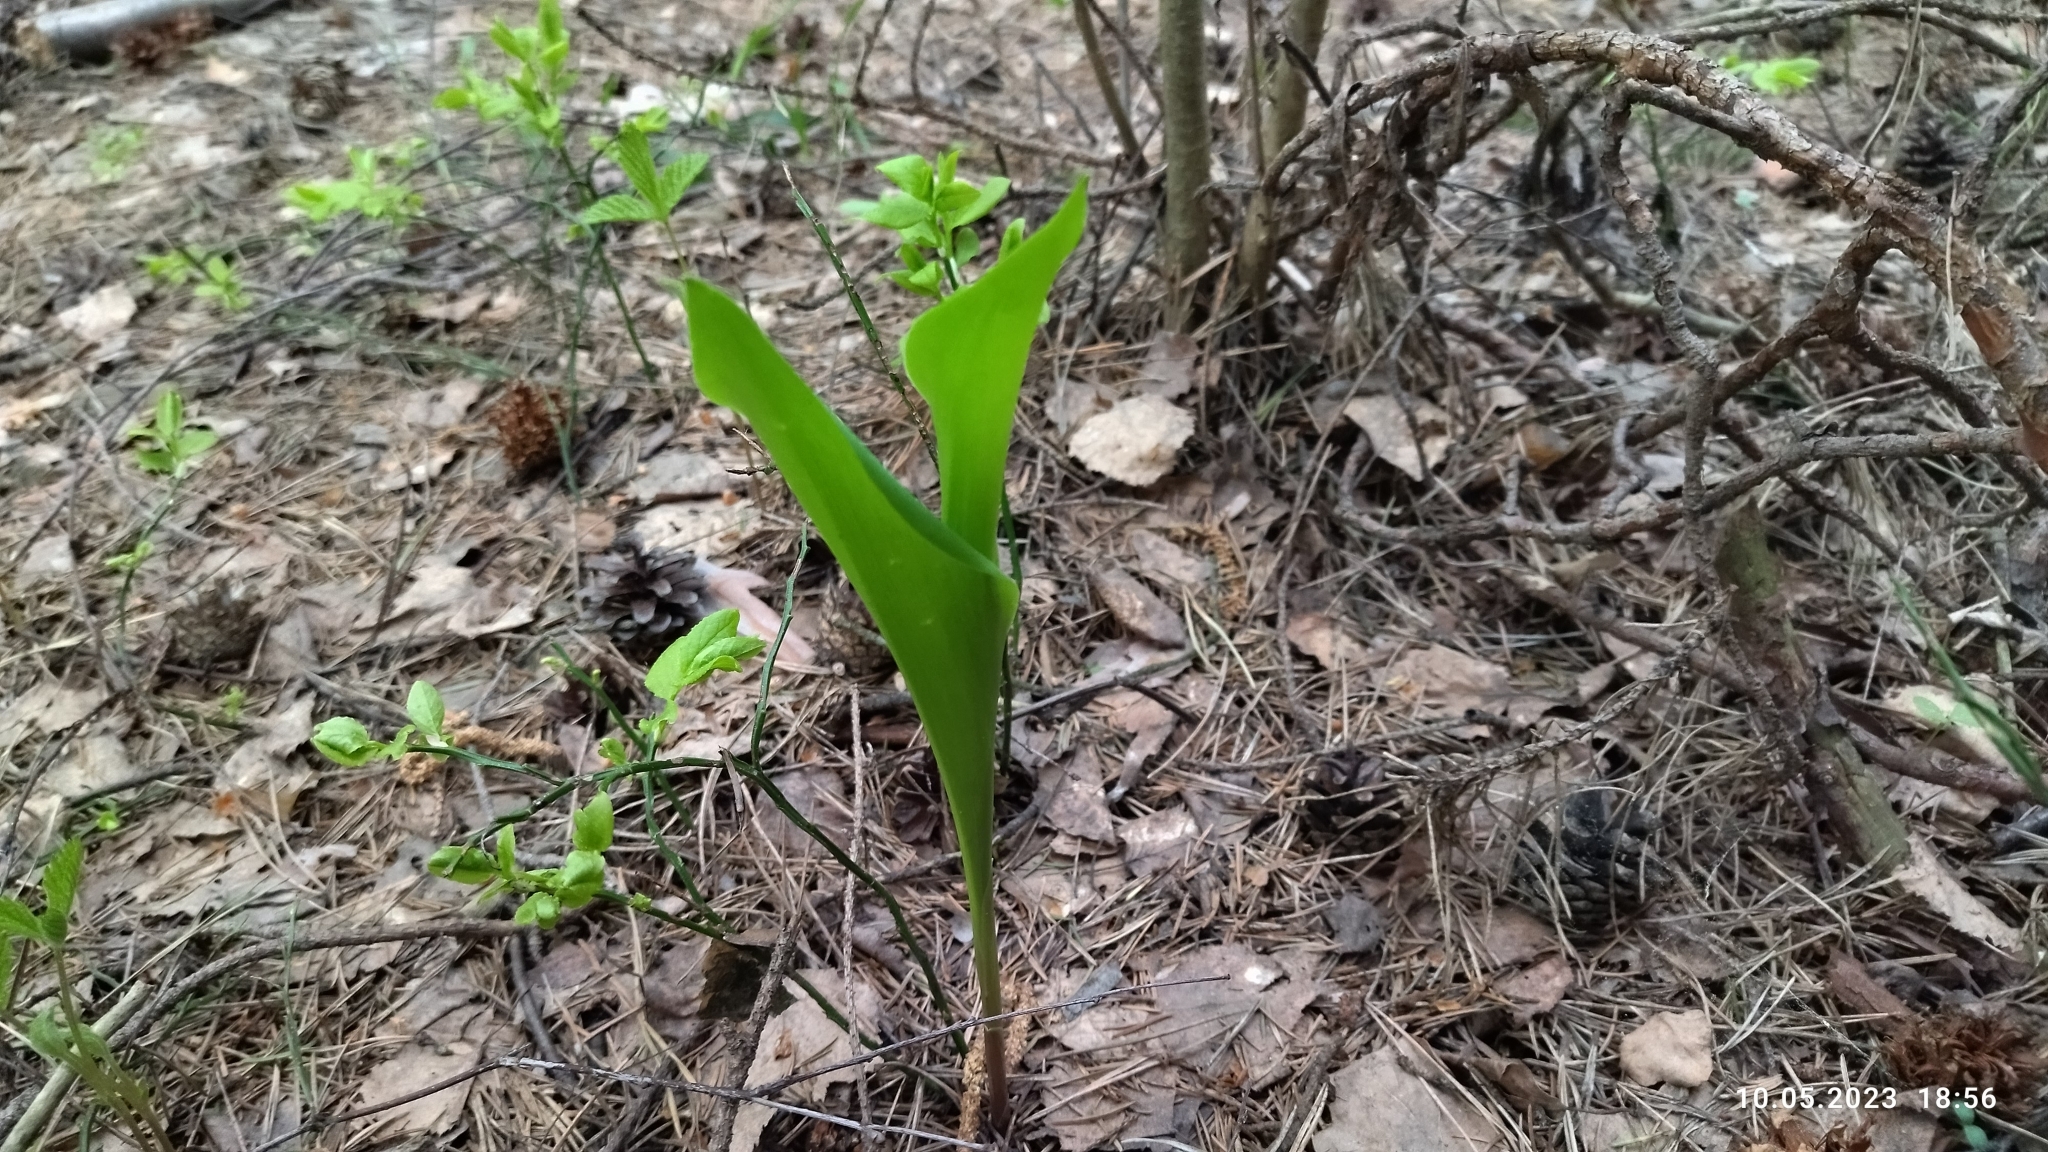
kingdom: Plantae
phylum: Tracheophyta
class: Liliopsida
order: Asparagales
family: Asparagaceae
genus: Convallaria
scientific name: Convallaria majalis
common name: Lily-of-the-valley
